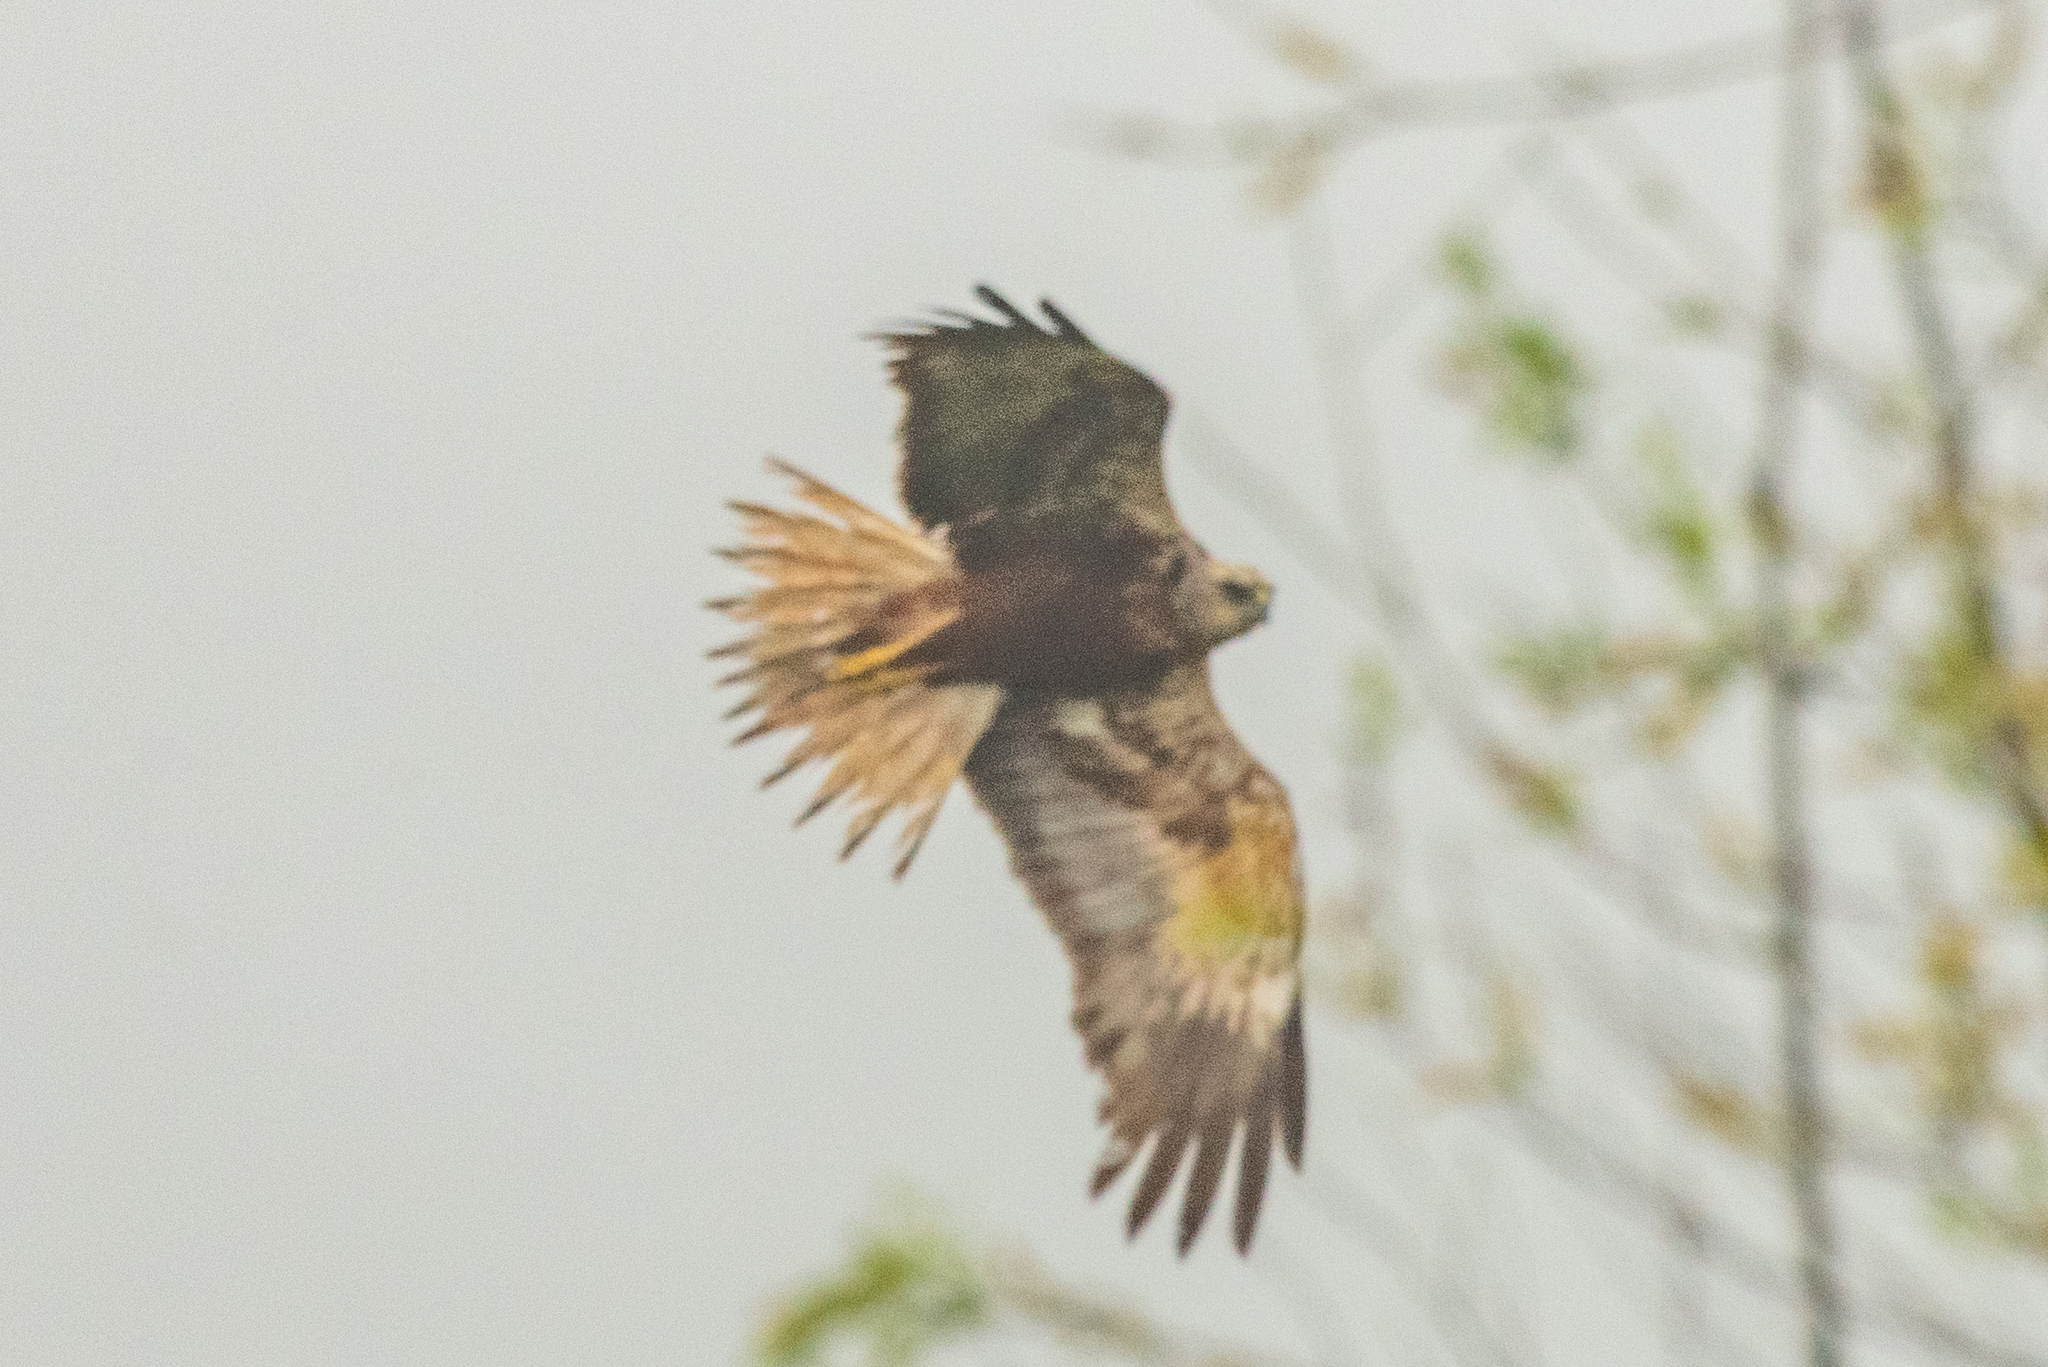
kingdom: Animalia
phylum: Chordata
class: Aves
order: Accipitriformes
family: Accipitridae
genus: Circus
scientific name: Circus aeruginosus
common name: Western marsh harrier
